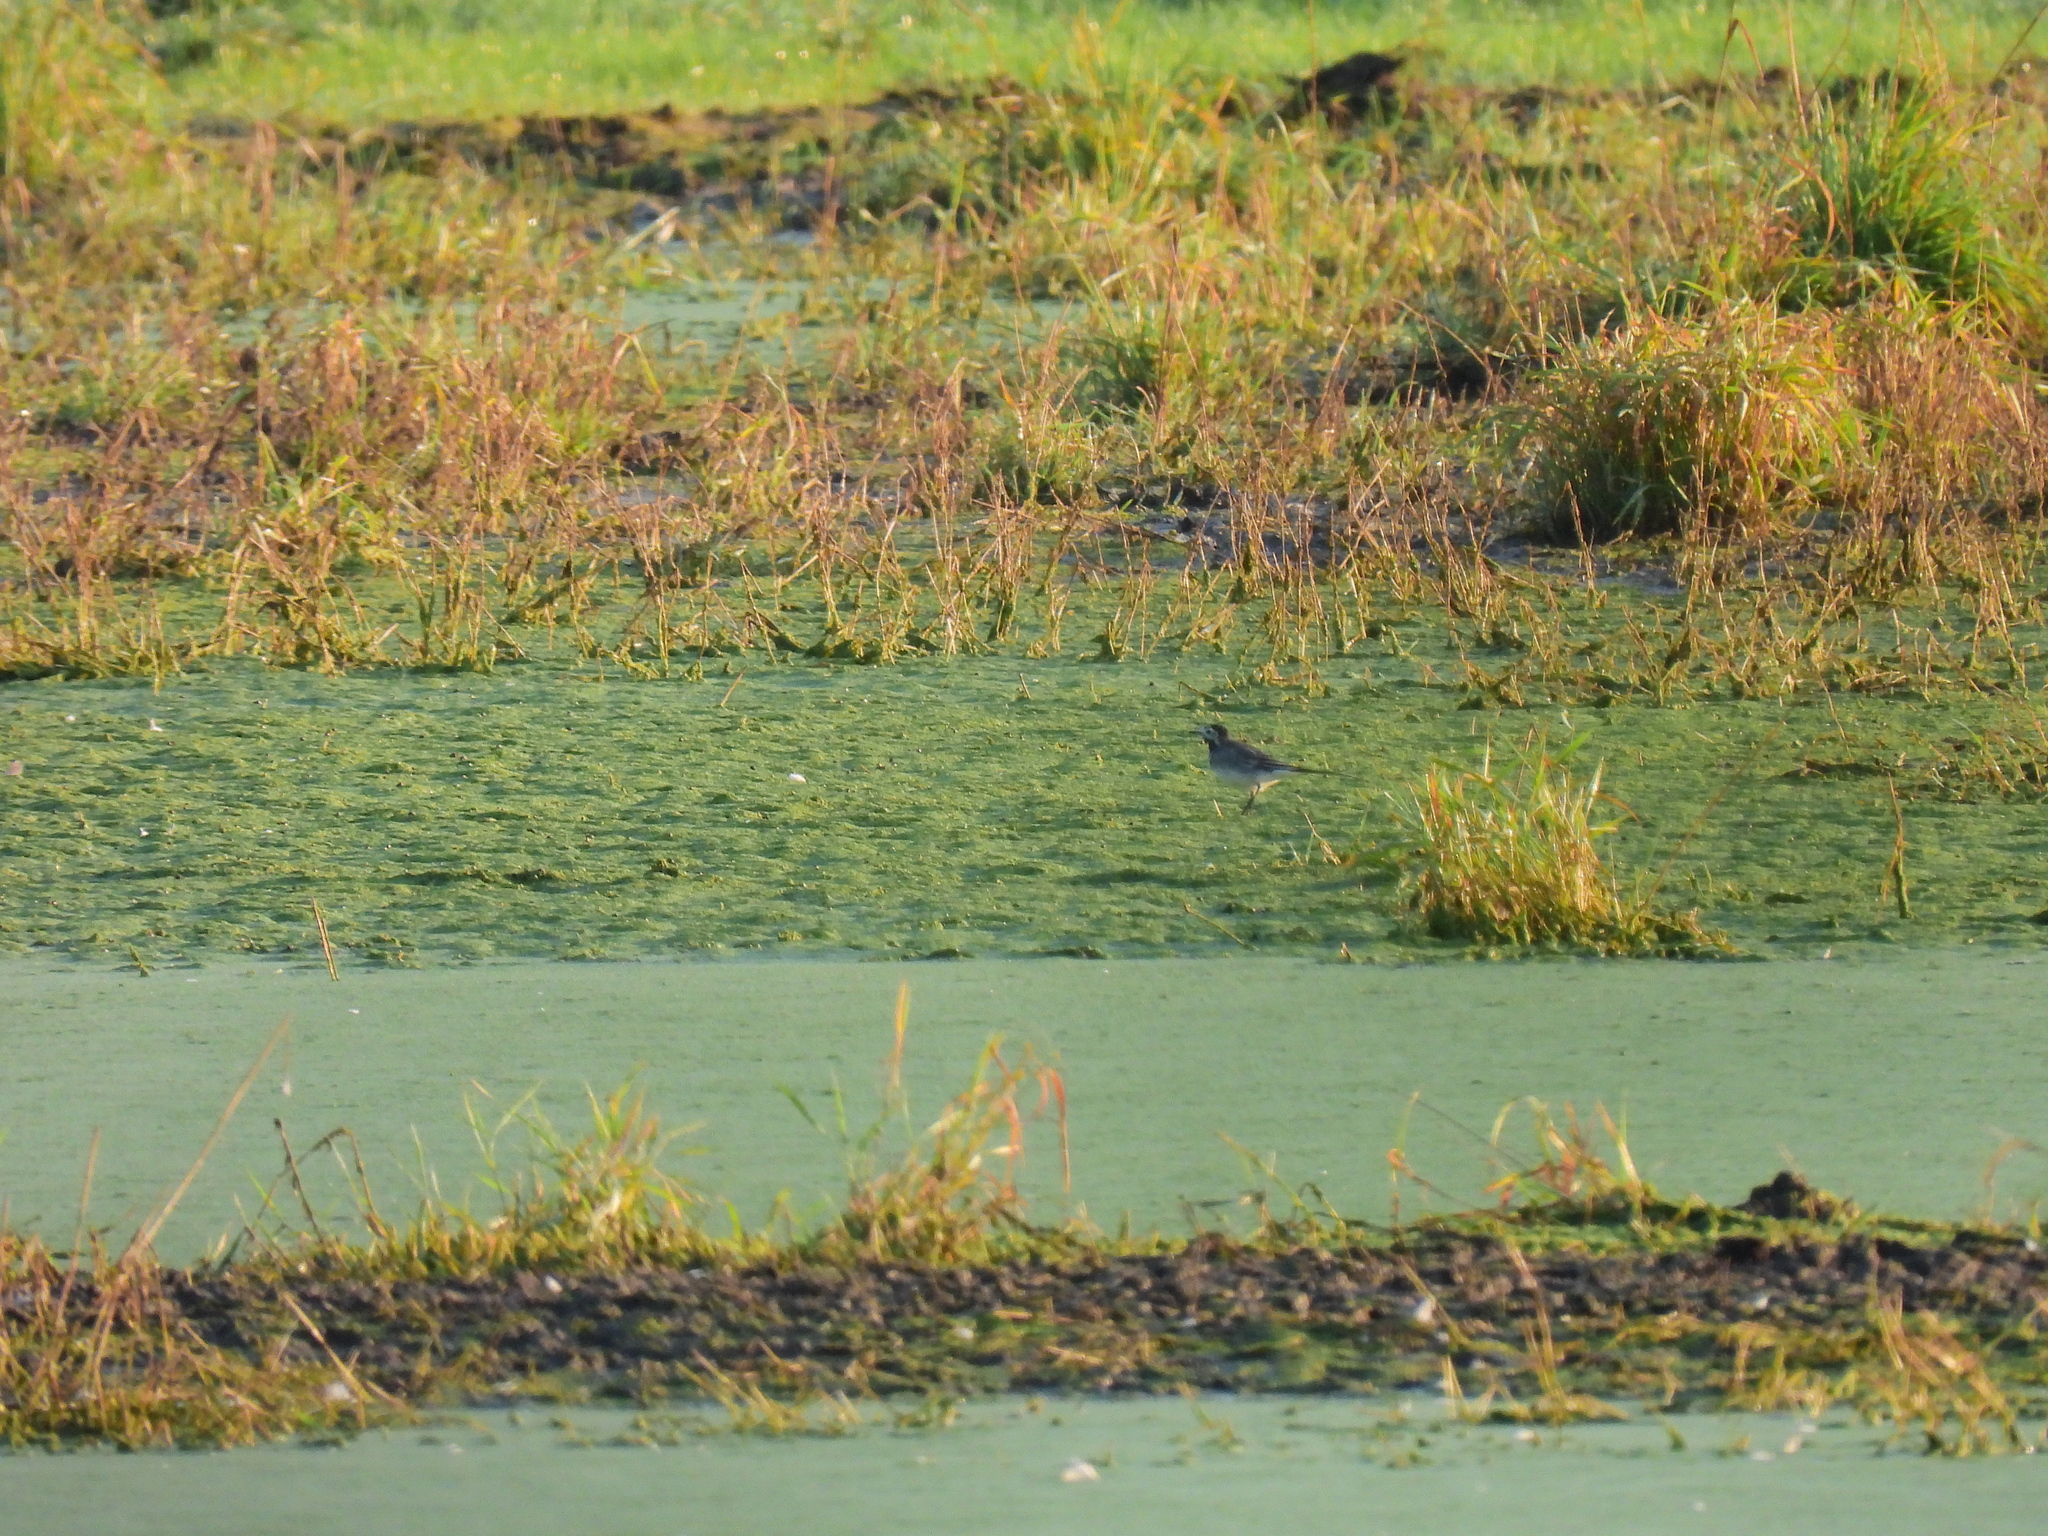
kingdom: Animalia
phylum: Chordata
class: Aves
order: Passeriformes
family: Motacillidae
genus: Motacilla
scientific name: Motacilla alba
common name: White wagtail
